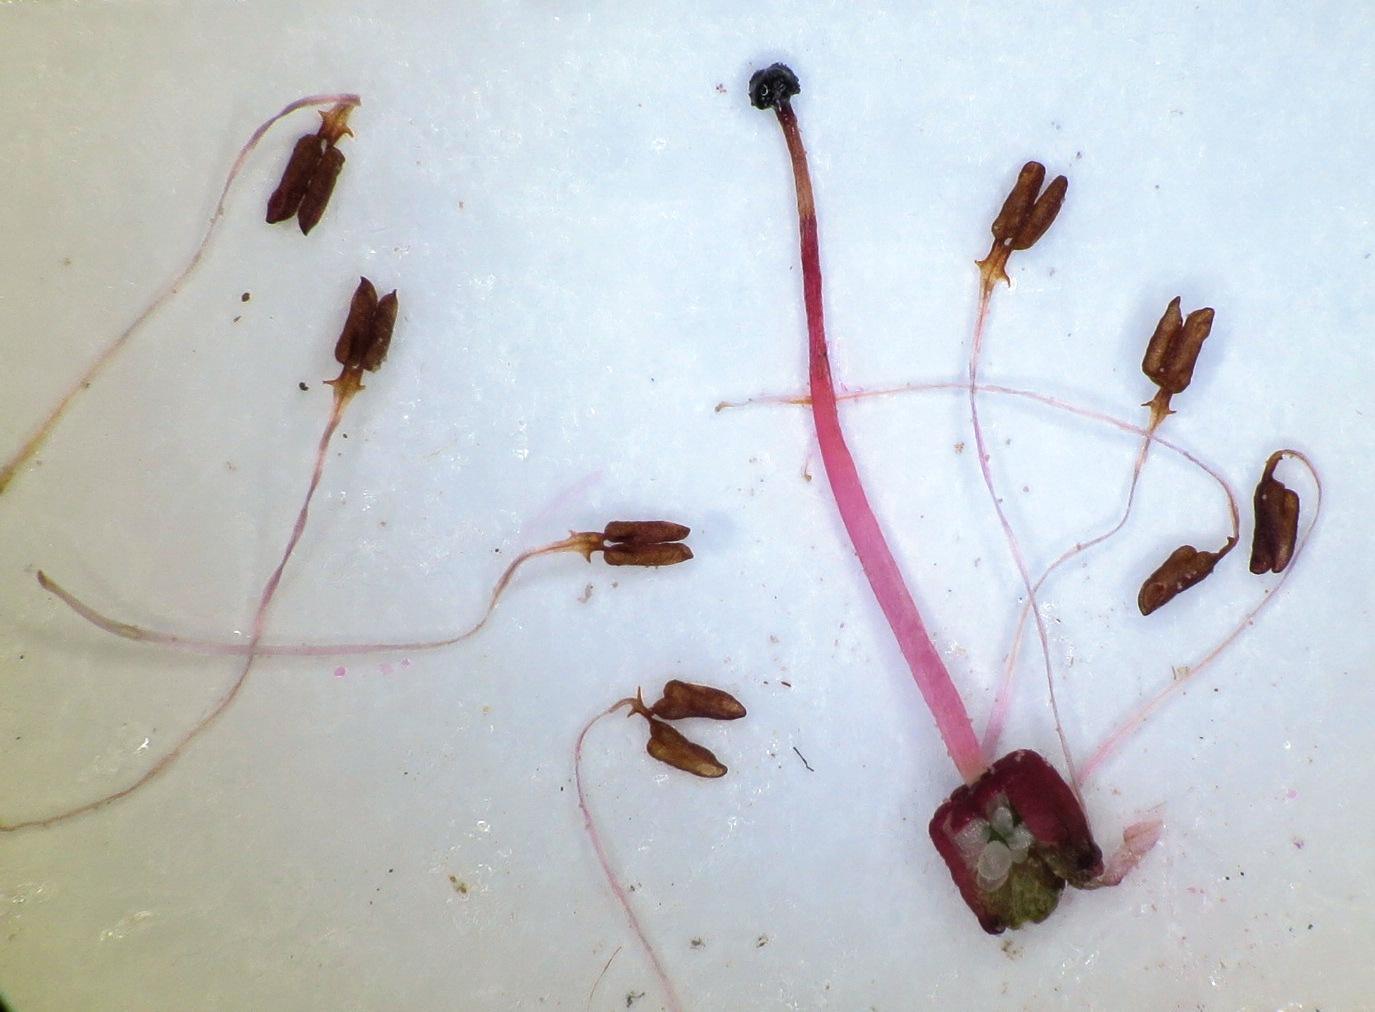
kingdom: Plantae
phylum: Tracheophyta
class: Magnoliopsida
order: Ericales
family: Ericaceae
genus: Erica
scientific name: Erica insolitanthera
